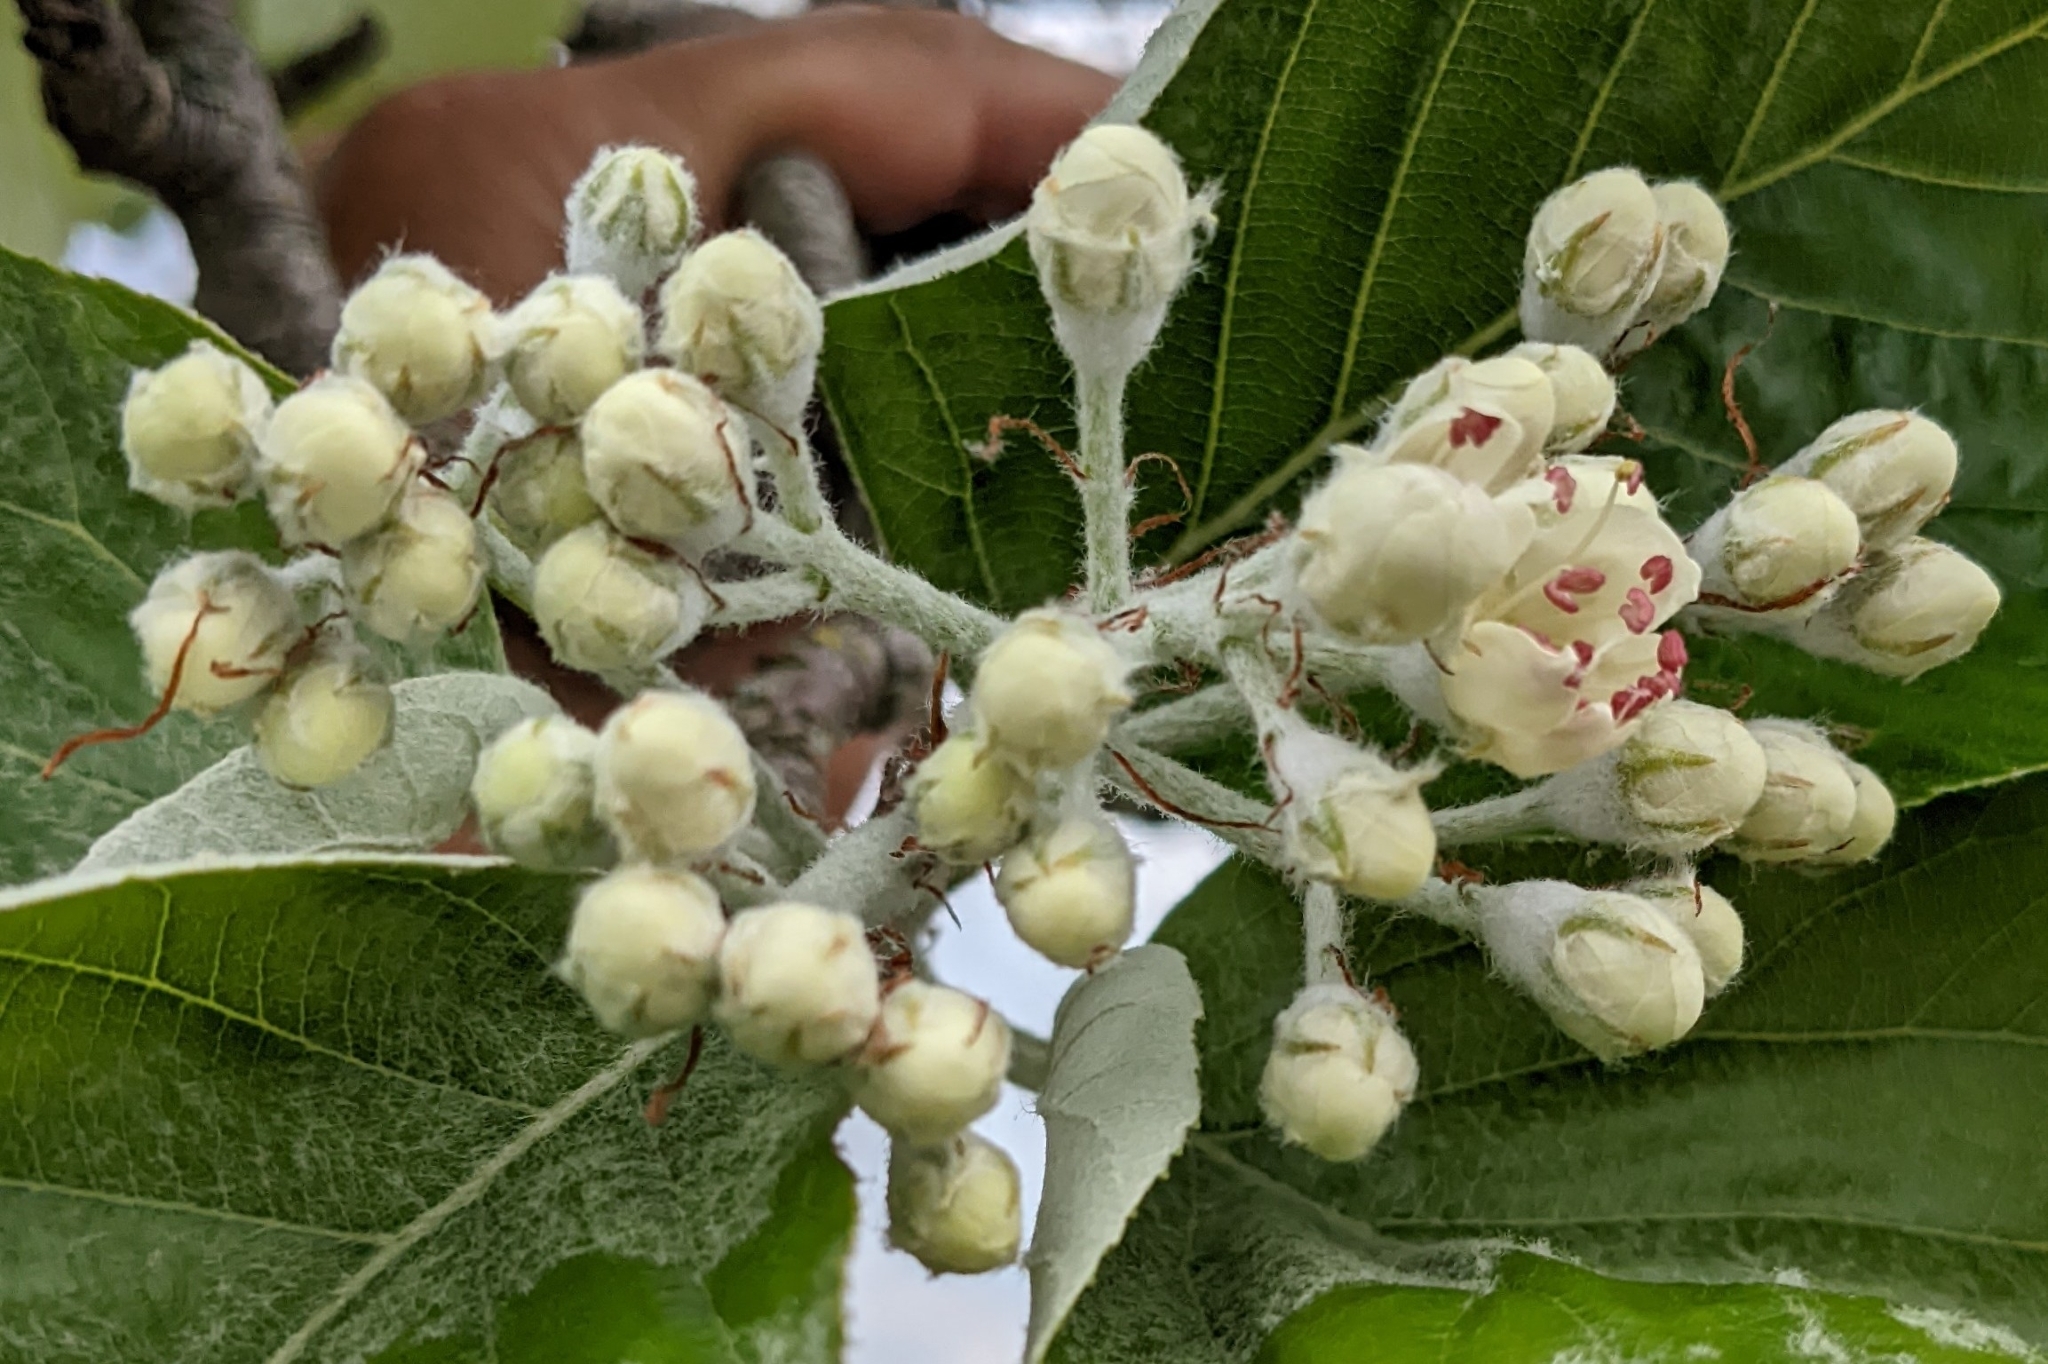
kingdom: Plantae
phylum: Tracheophyta
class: Magnoliopsida
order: Rosales
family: Rosaceae
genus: Aria
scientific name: Aria edulis
